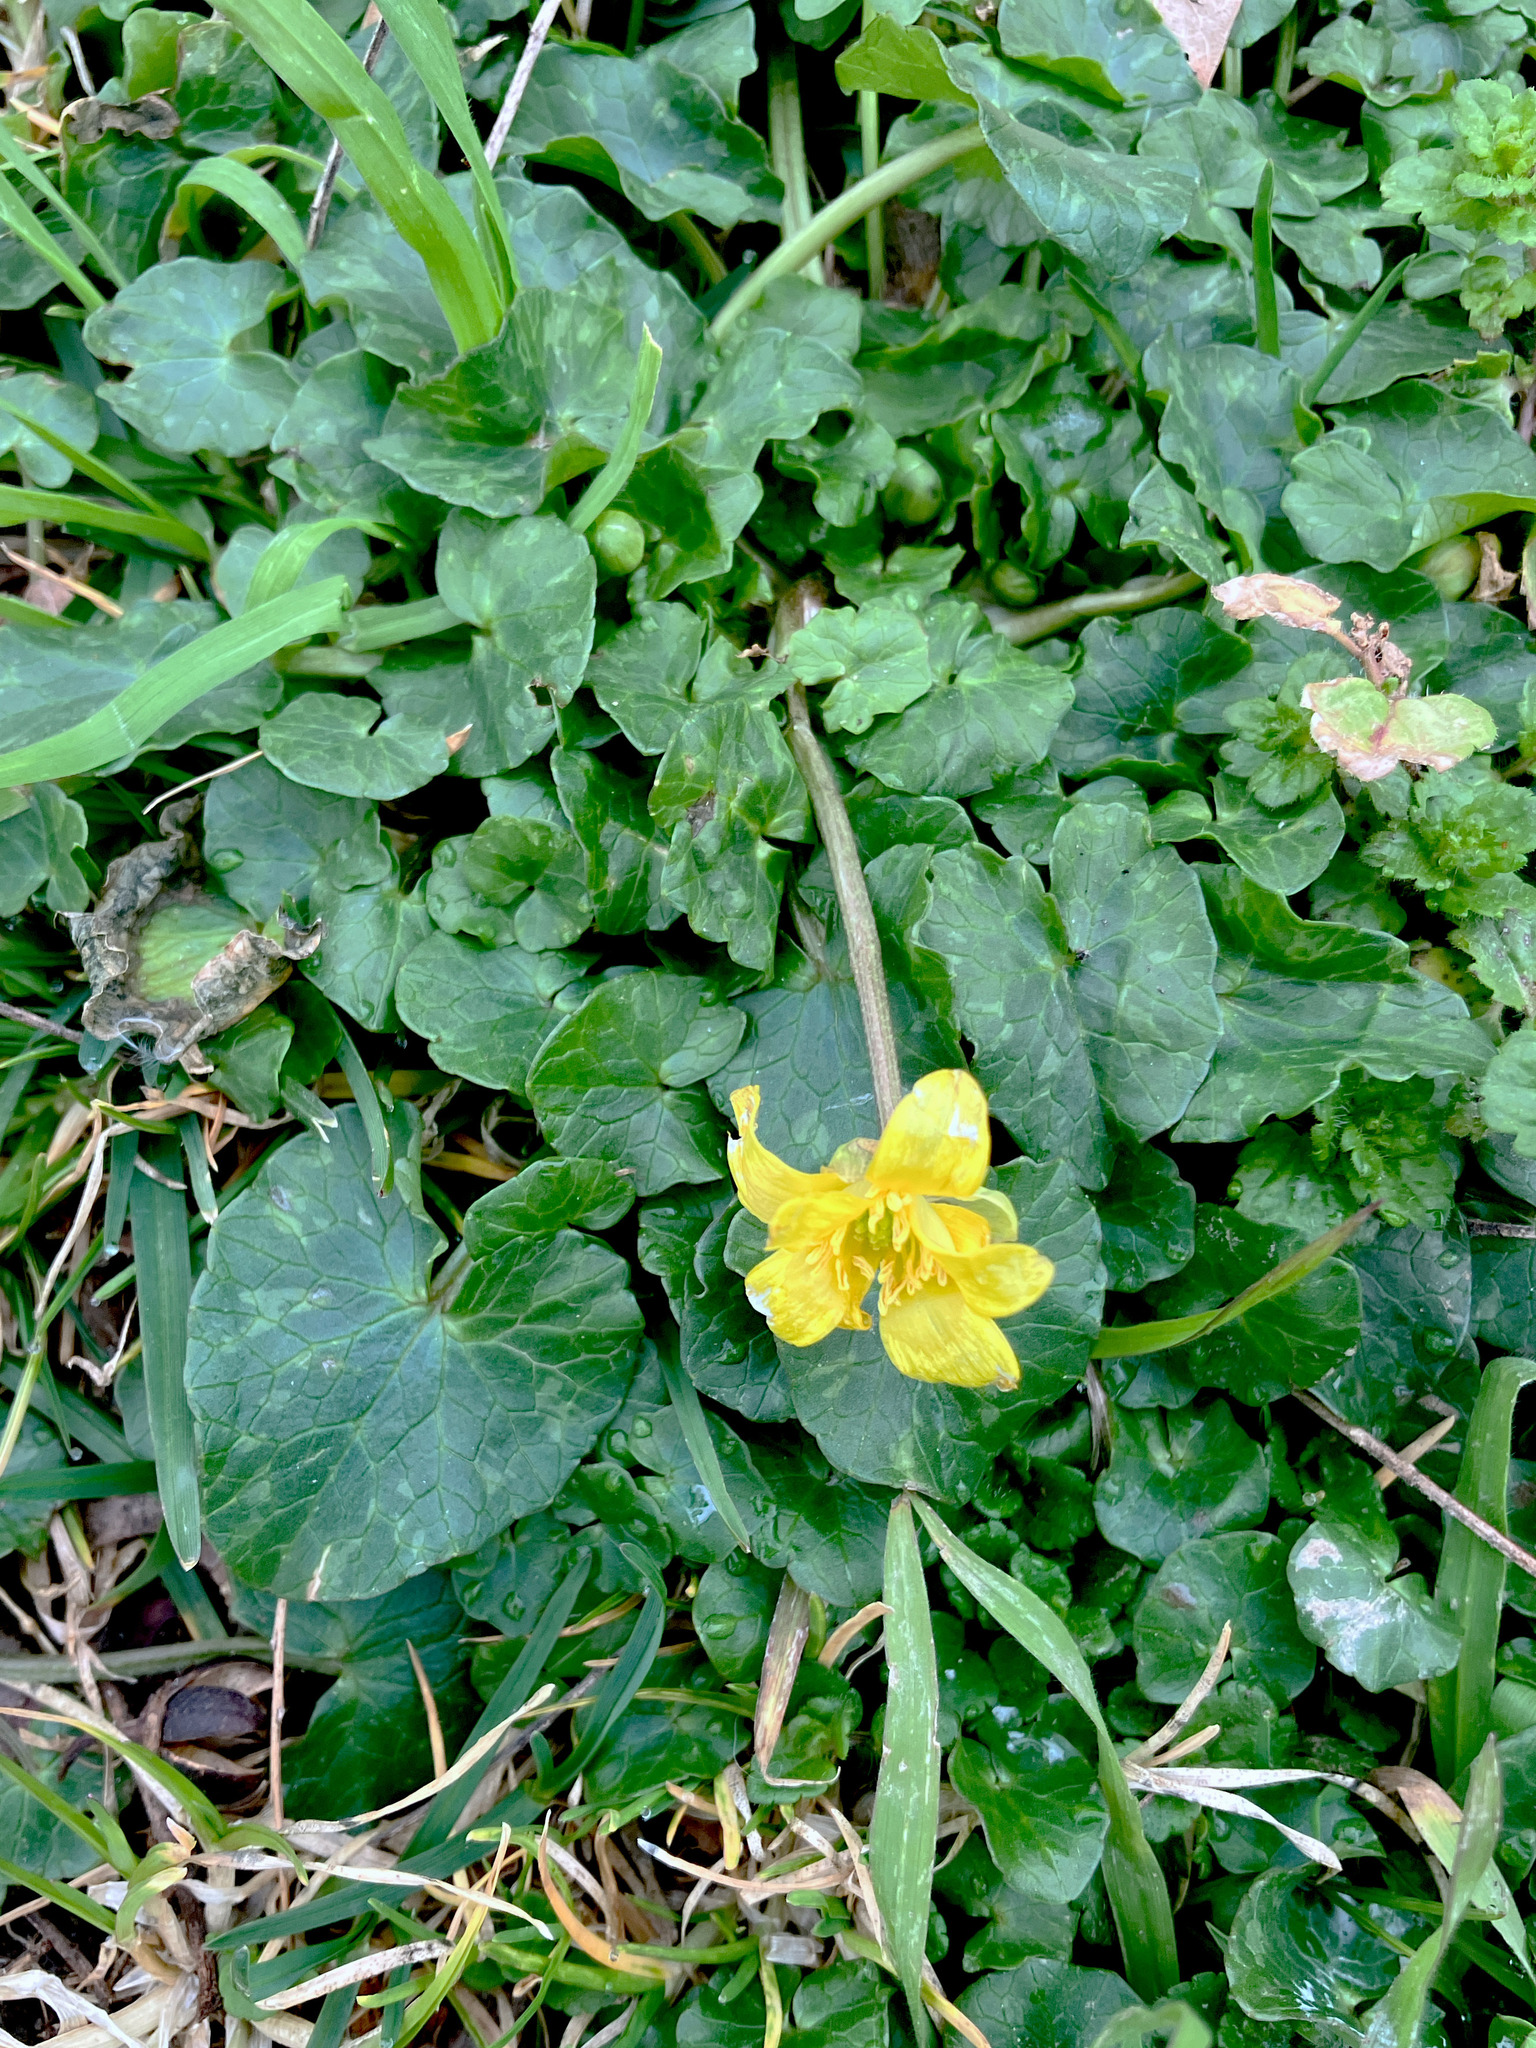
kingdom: Plantae
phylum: Tracheophyta
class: Magnoliopsida
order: Ranunculales
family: Ranunculaceae
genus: Ficaria
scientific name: Ficaria verna
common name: Lesser celandine
